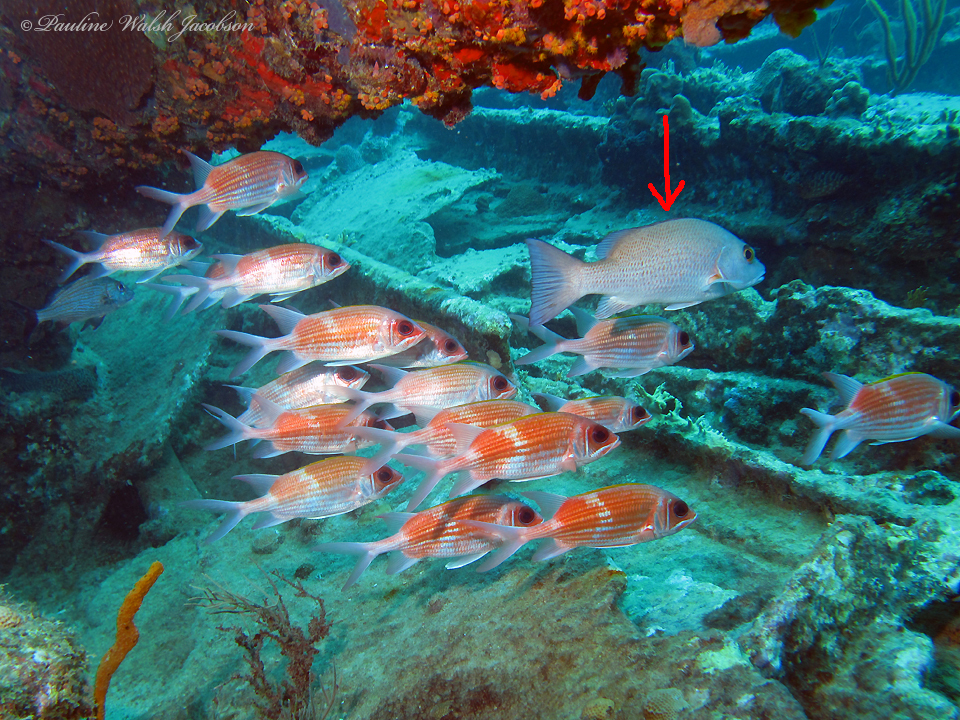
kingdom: Animalia
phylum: Chordata
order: Perciformes
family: Lutjanidae
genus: Lutjanus
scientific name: Lutjanus griseus
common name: Gray snapper
